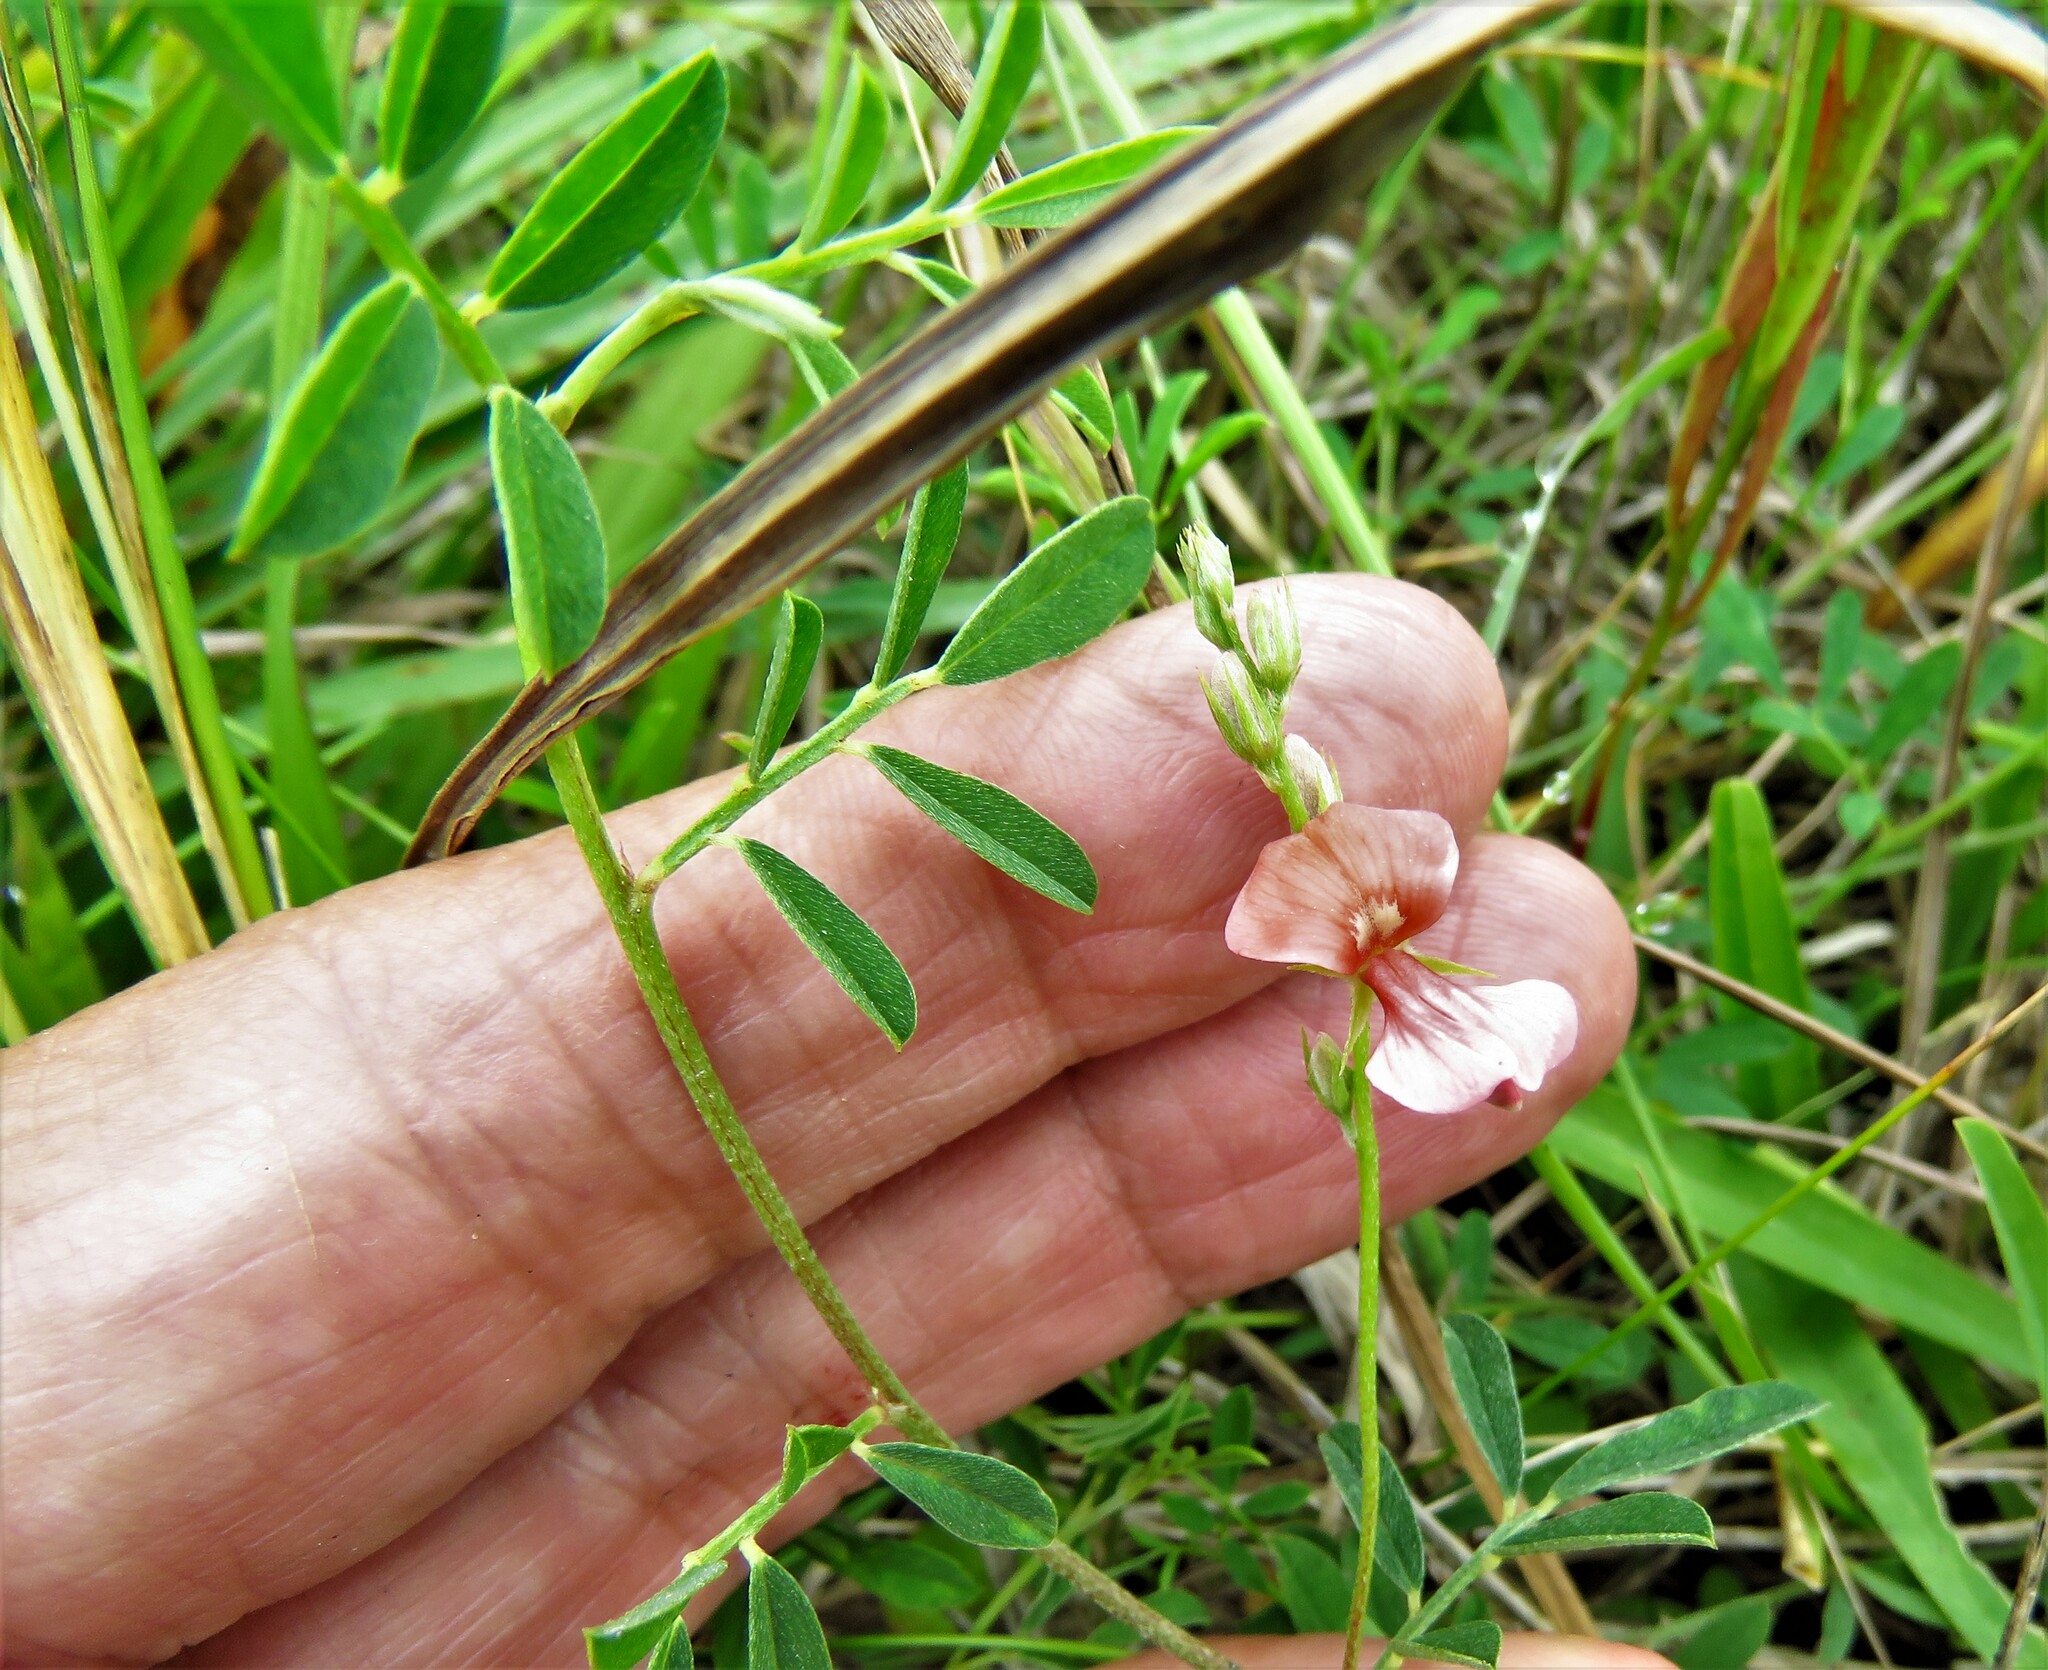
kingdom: Plantae
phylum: Tracheophyta
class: Magnoliopsida
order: Fabales
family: Fabaceae
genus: Indigofera
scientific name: Indigofera miniata
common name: Coast indigo
